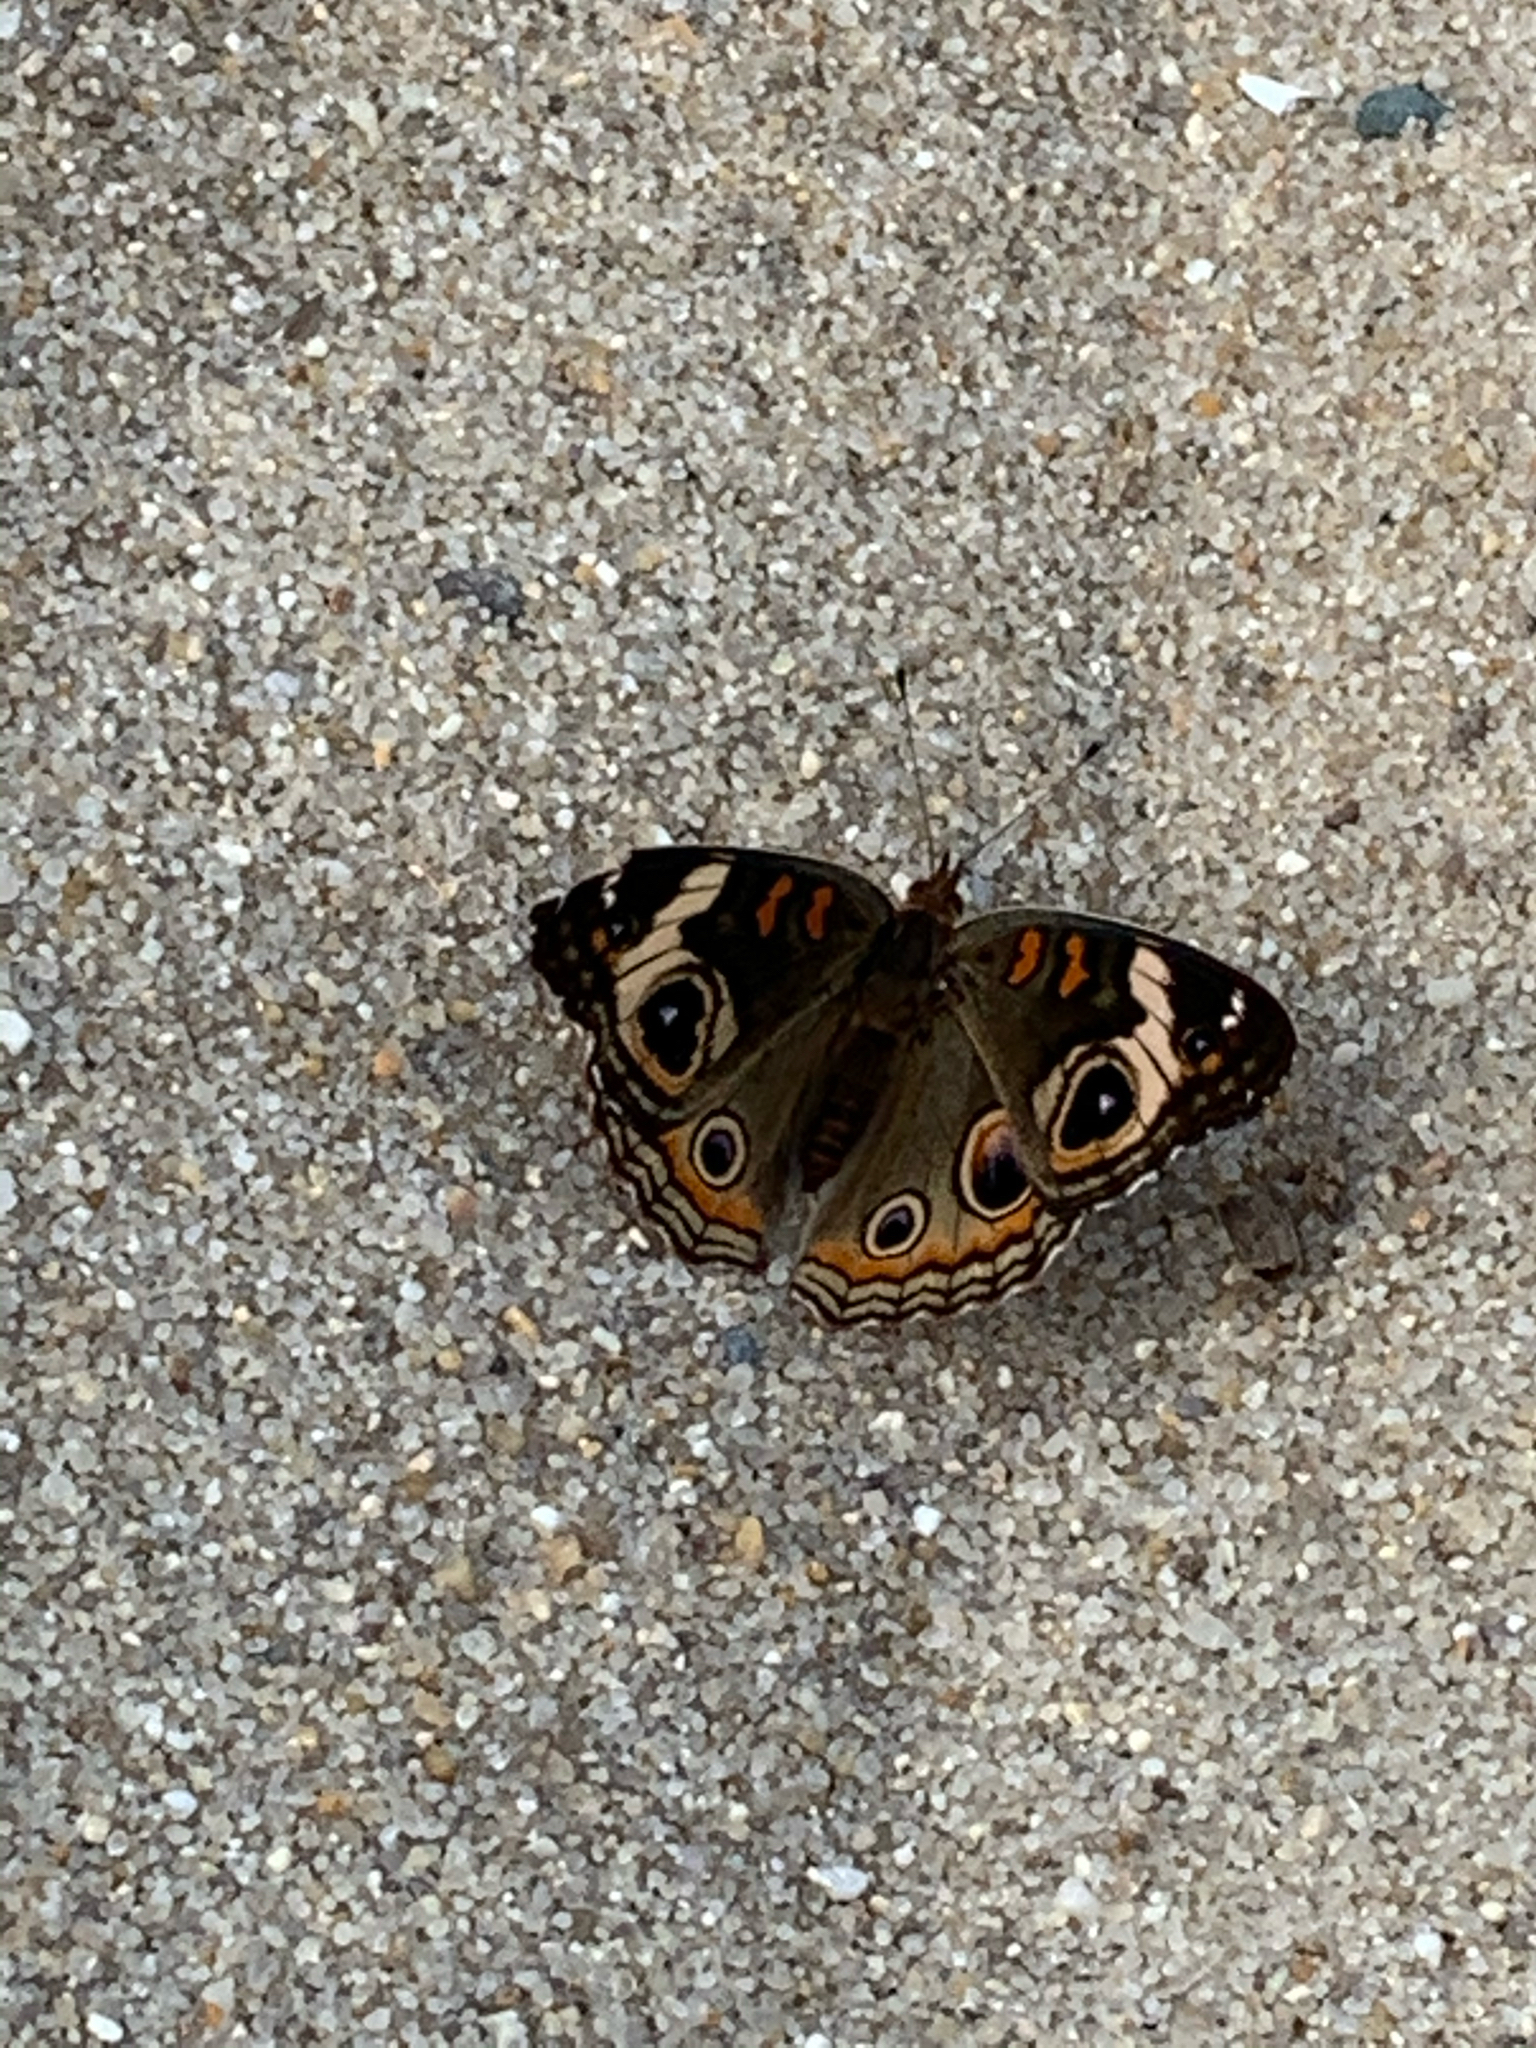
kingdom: Animalia
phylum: Arthropoda
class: Insecta
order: Lepidoptera
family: Nymphalidae
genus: Junonia
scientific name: Junonia coenia
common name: Common buckeye
